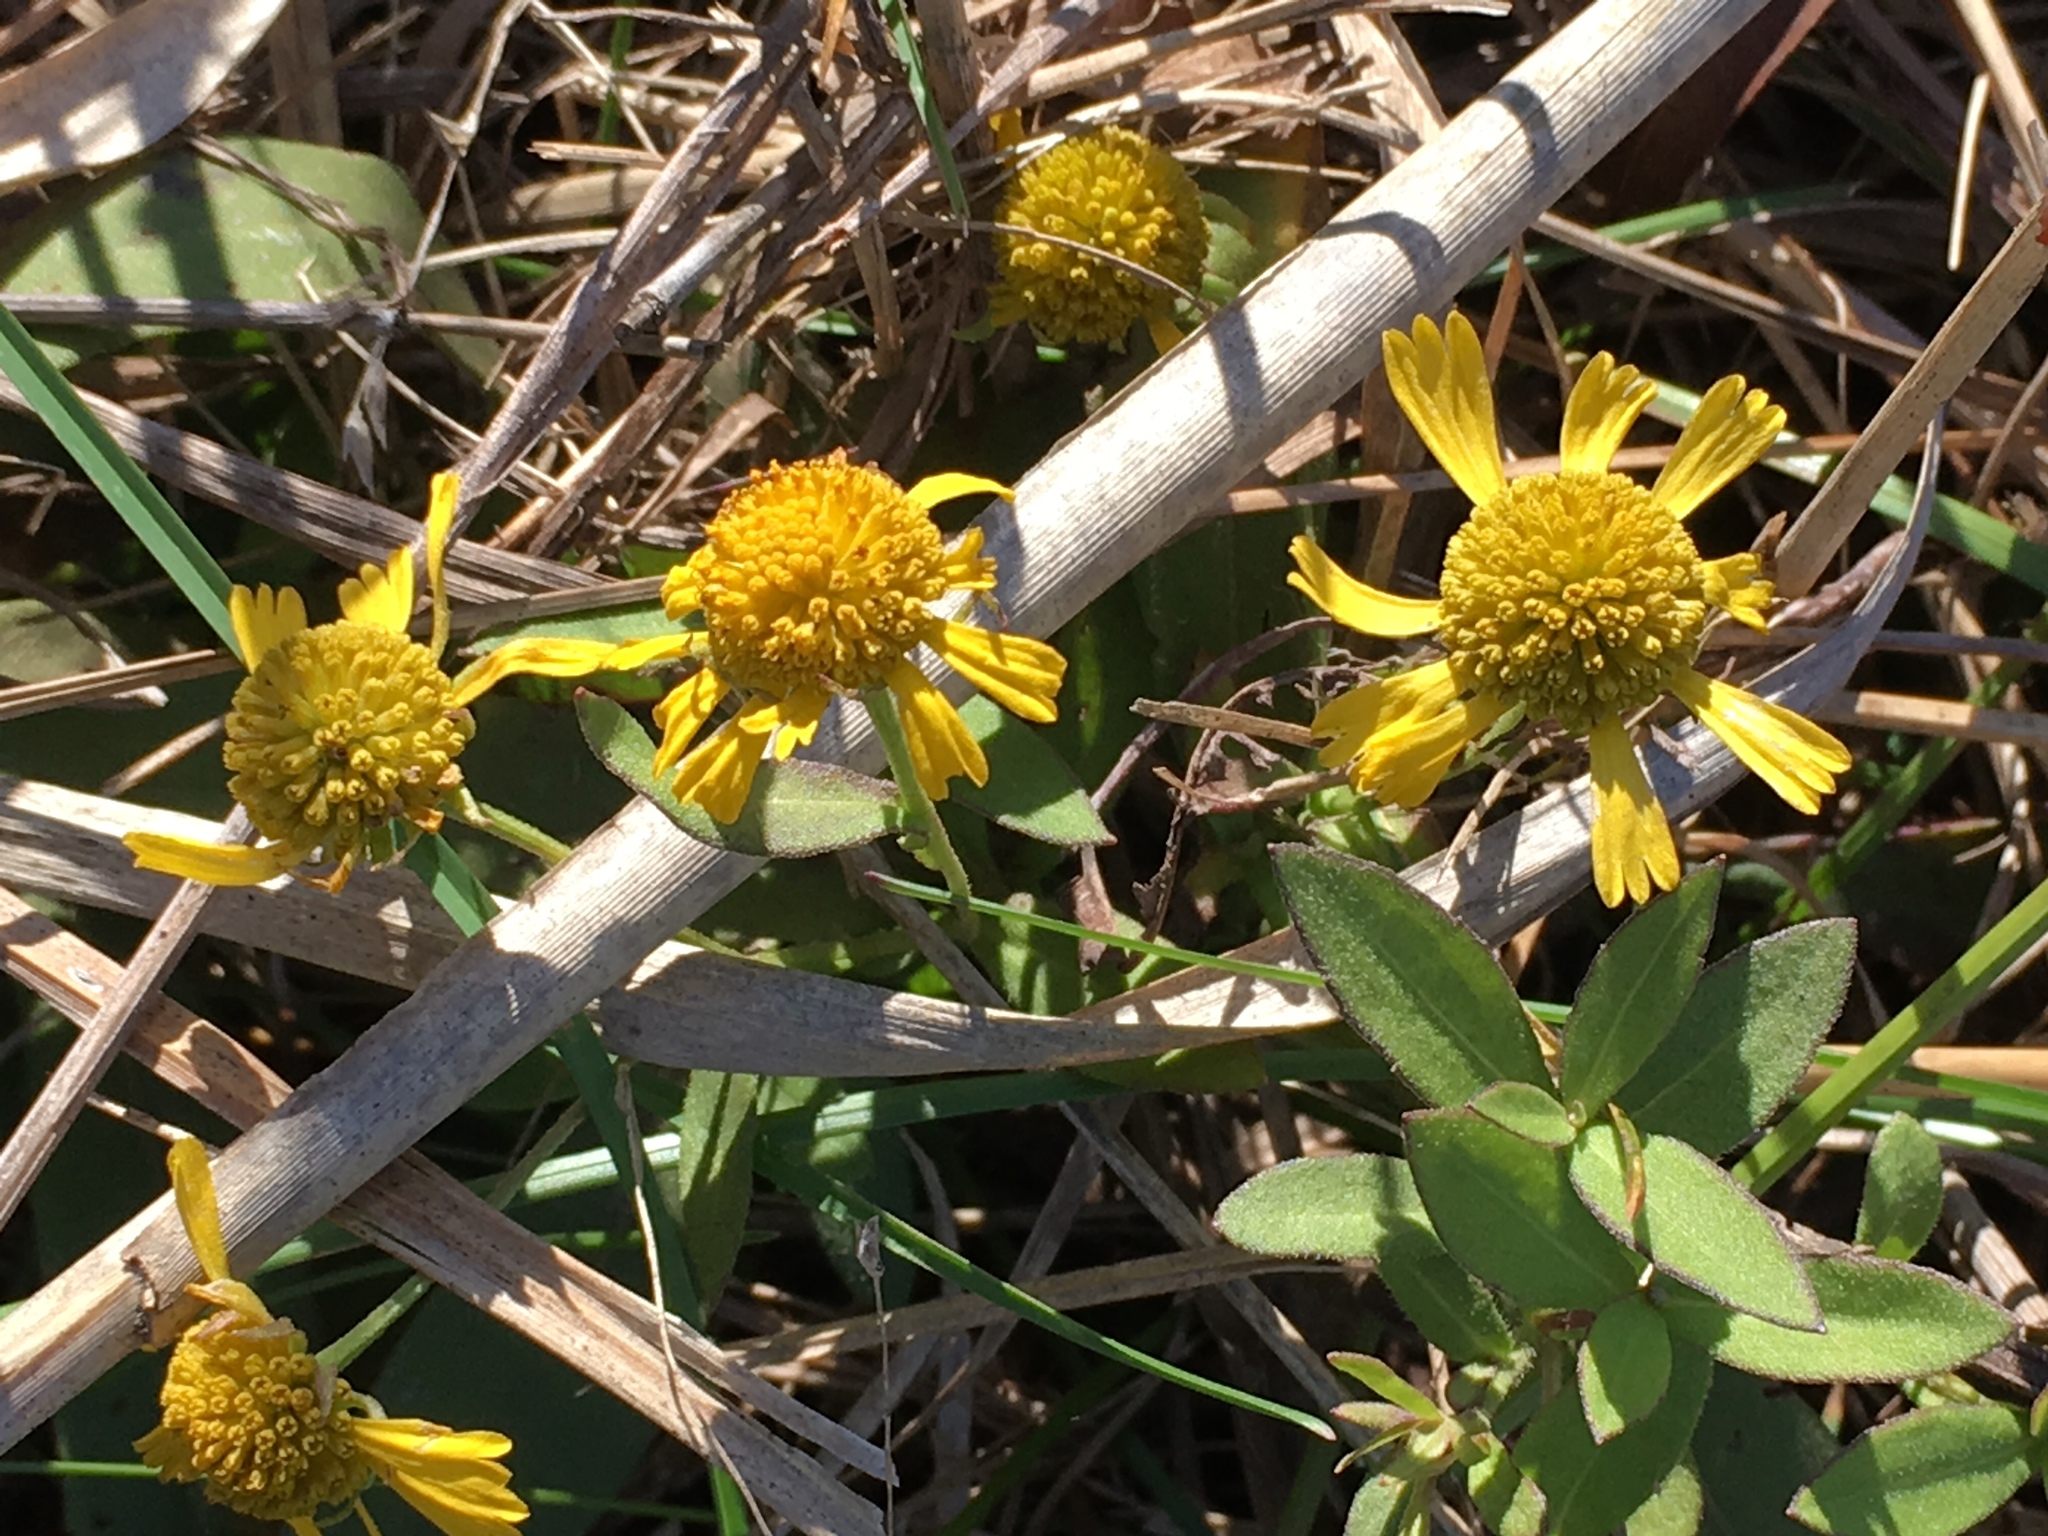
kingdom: Plantae
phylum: Tracheophyta
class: Magnoliopsida
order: Asterales
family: Asteraceae
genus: Helenium
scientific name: Helenium autumnale
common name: Sneezeweed
